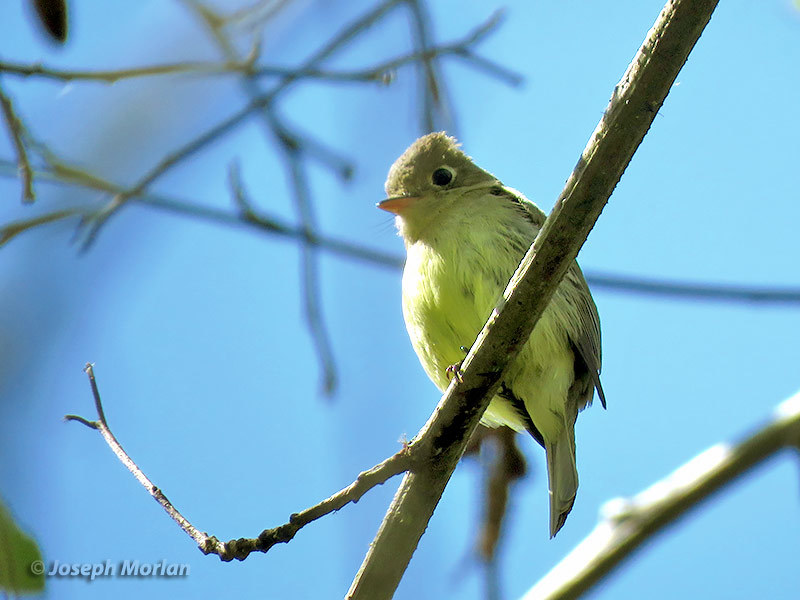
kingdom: Animalia
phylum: Chordata
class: Aves
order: Passeriformes
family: Tyrannidae
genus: Empidonax
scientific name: Empidonax difficilis
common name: Pacific-slope flycatcher
